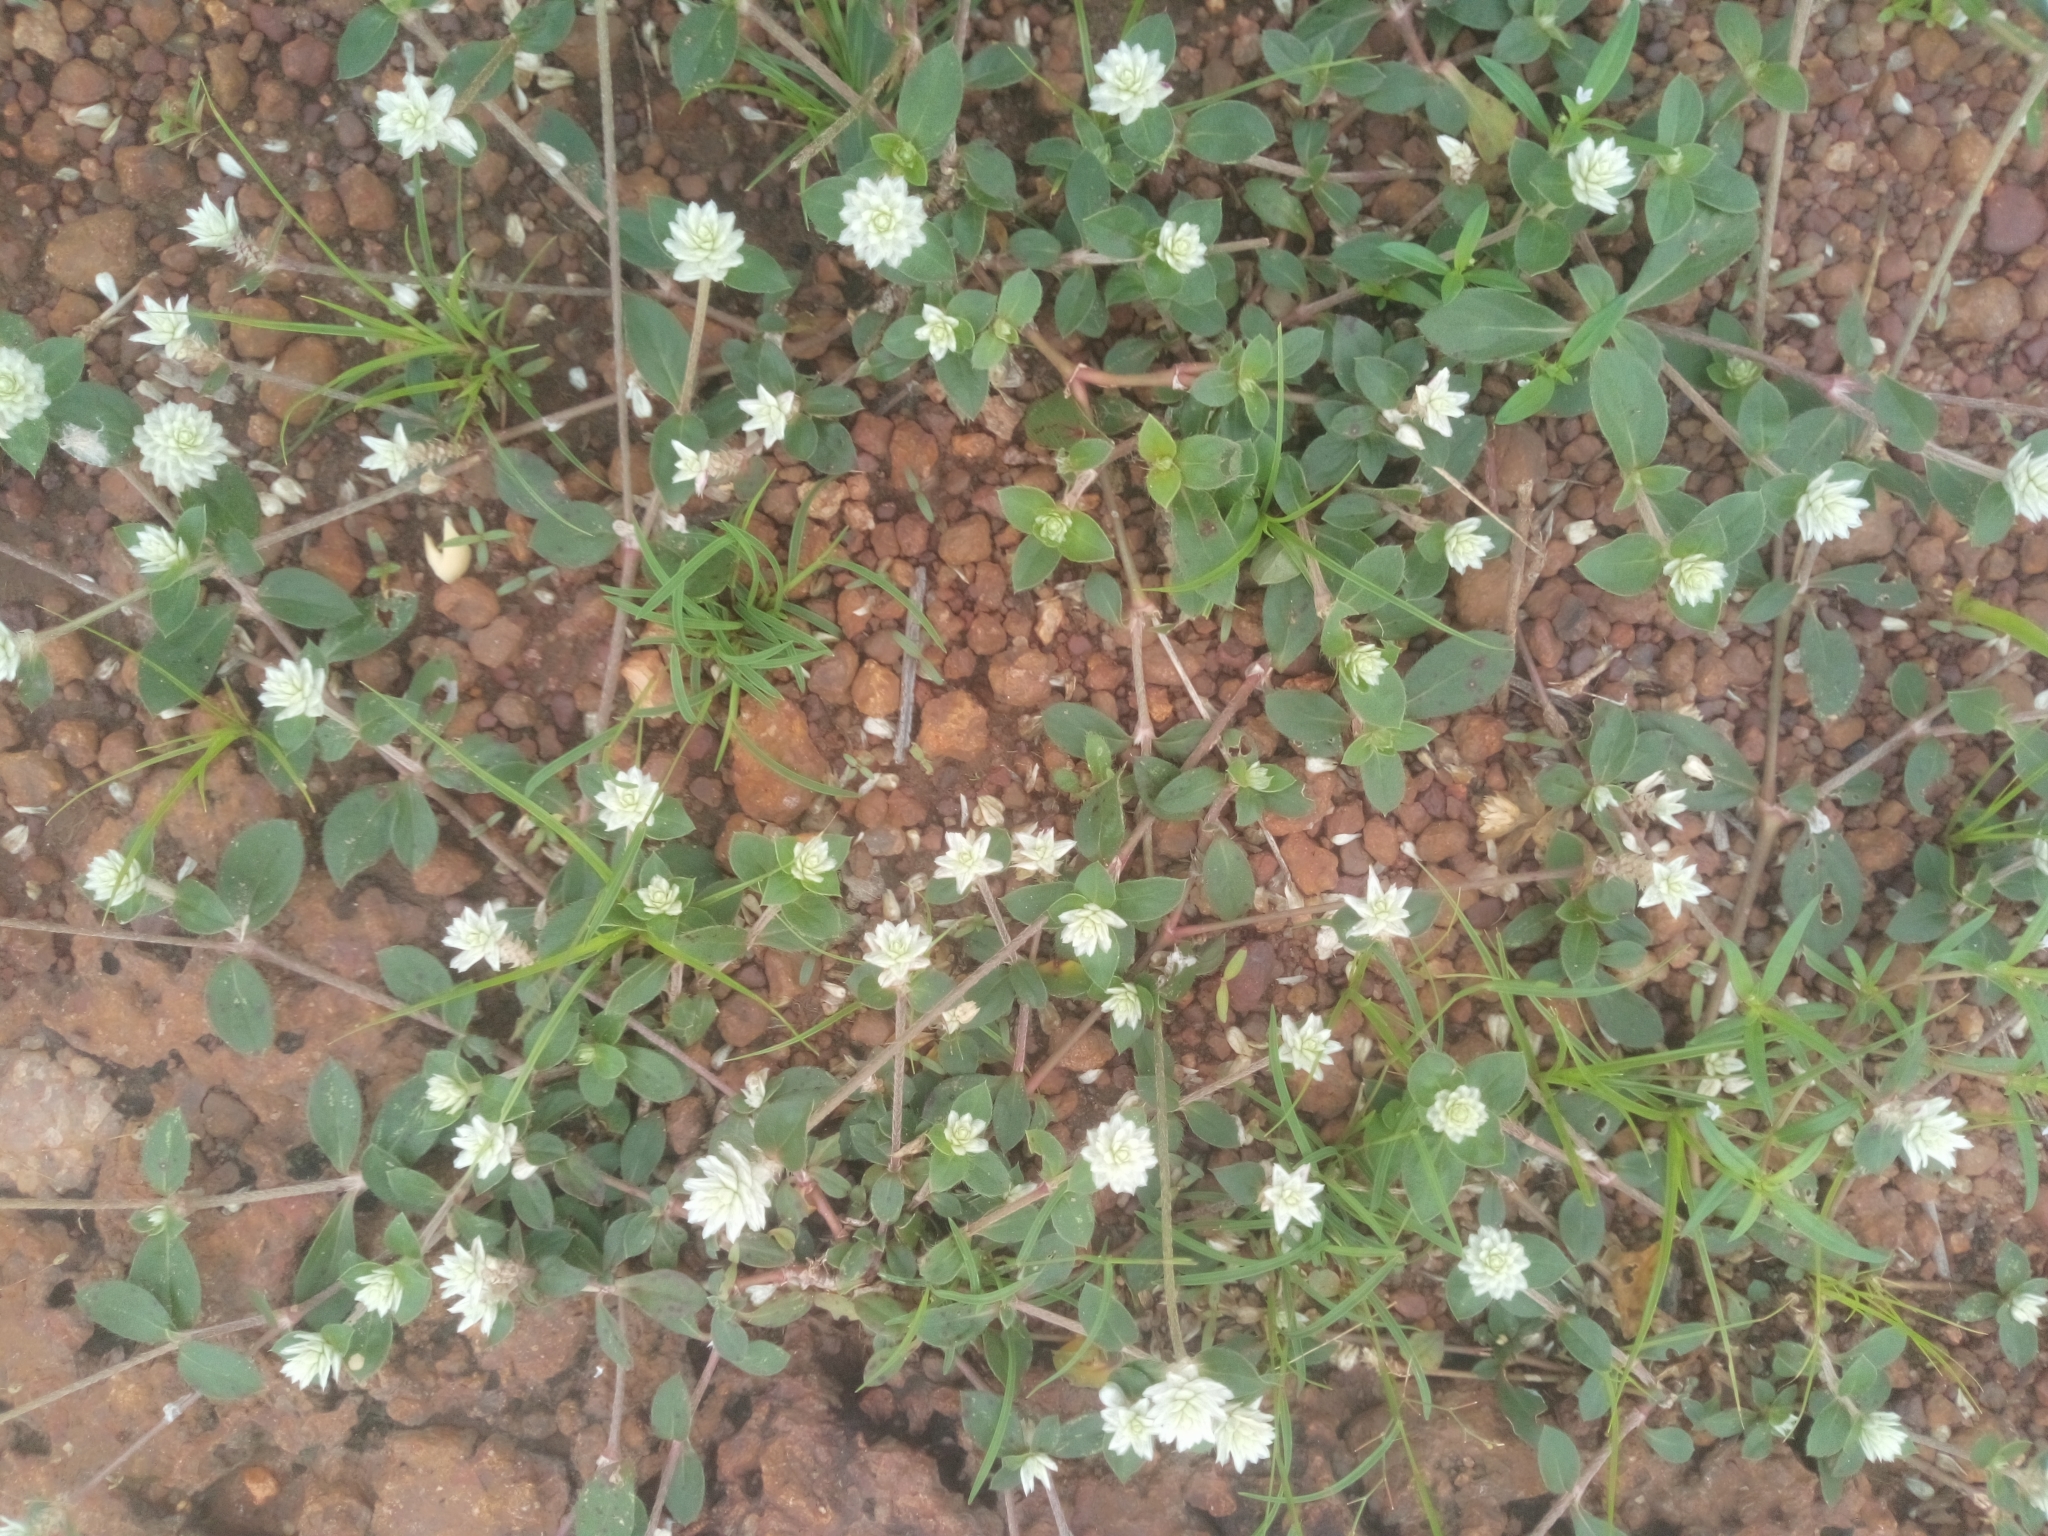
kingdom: Plantae
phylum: Tracheophyta
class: Magnoliopsida
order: Caryophyllales
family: Amaranthaceae
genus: Gomphrena
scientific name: Gomphrena celosioides
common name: Gomphrena-weed
